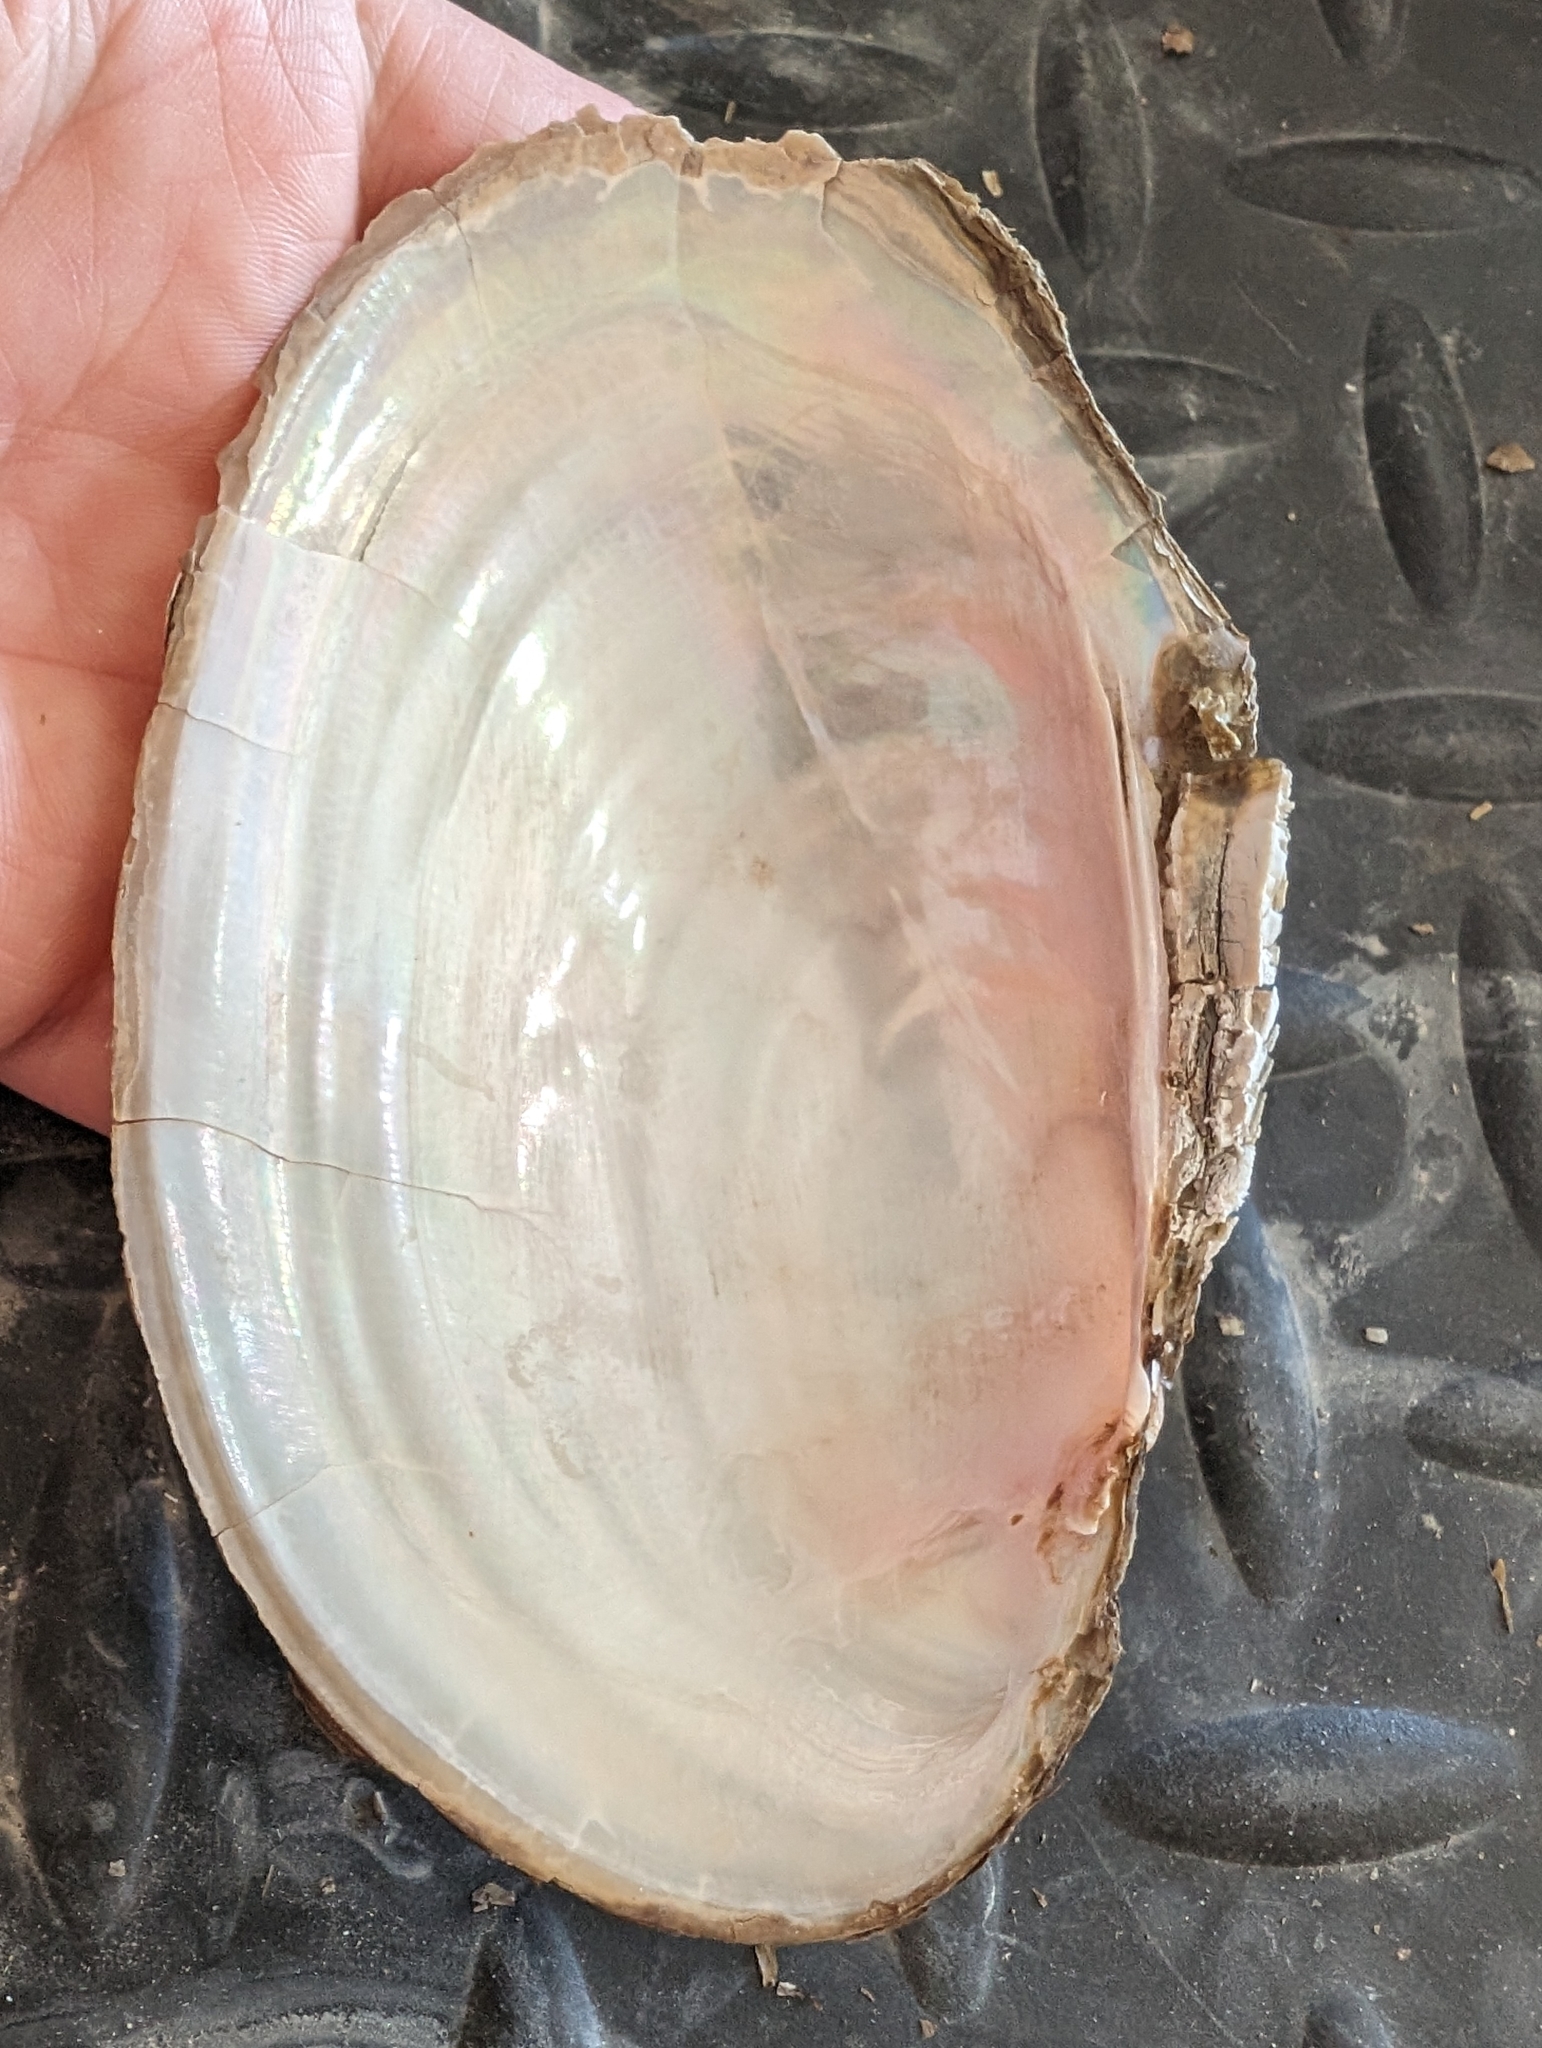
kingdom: Animalia
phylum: Mollusca
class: Bivalvia
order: Unionida
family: Unionidae
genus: Potamilus
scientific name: Potamilus fragilis
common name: Fragile papershell
